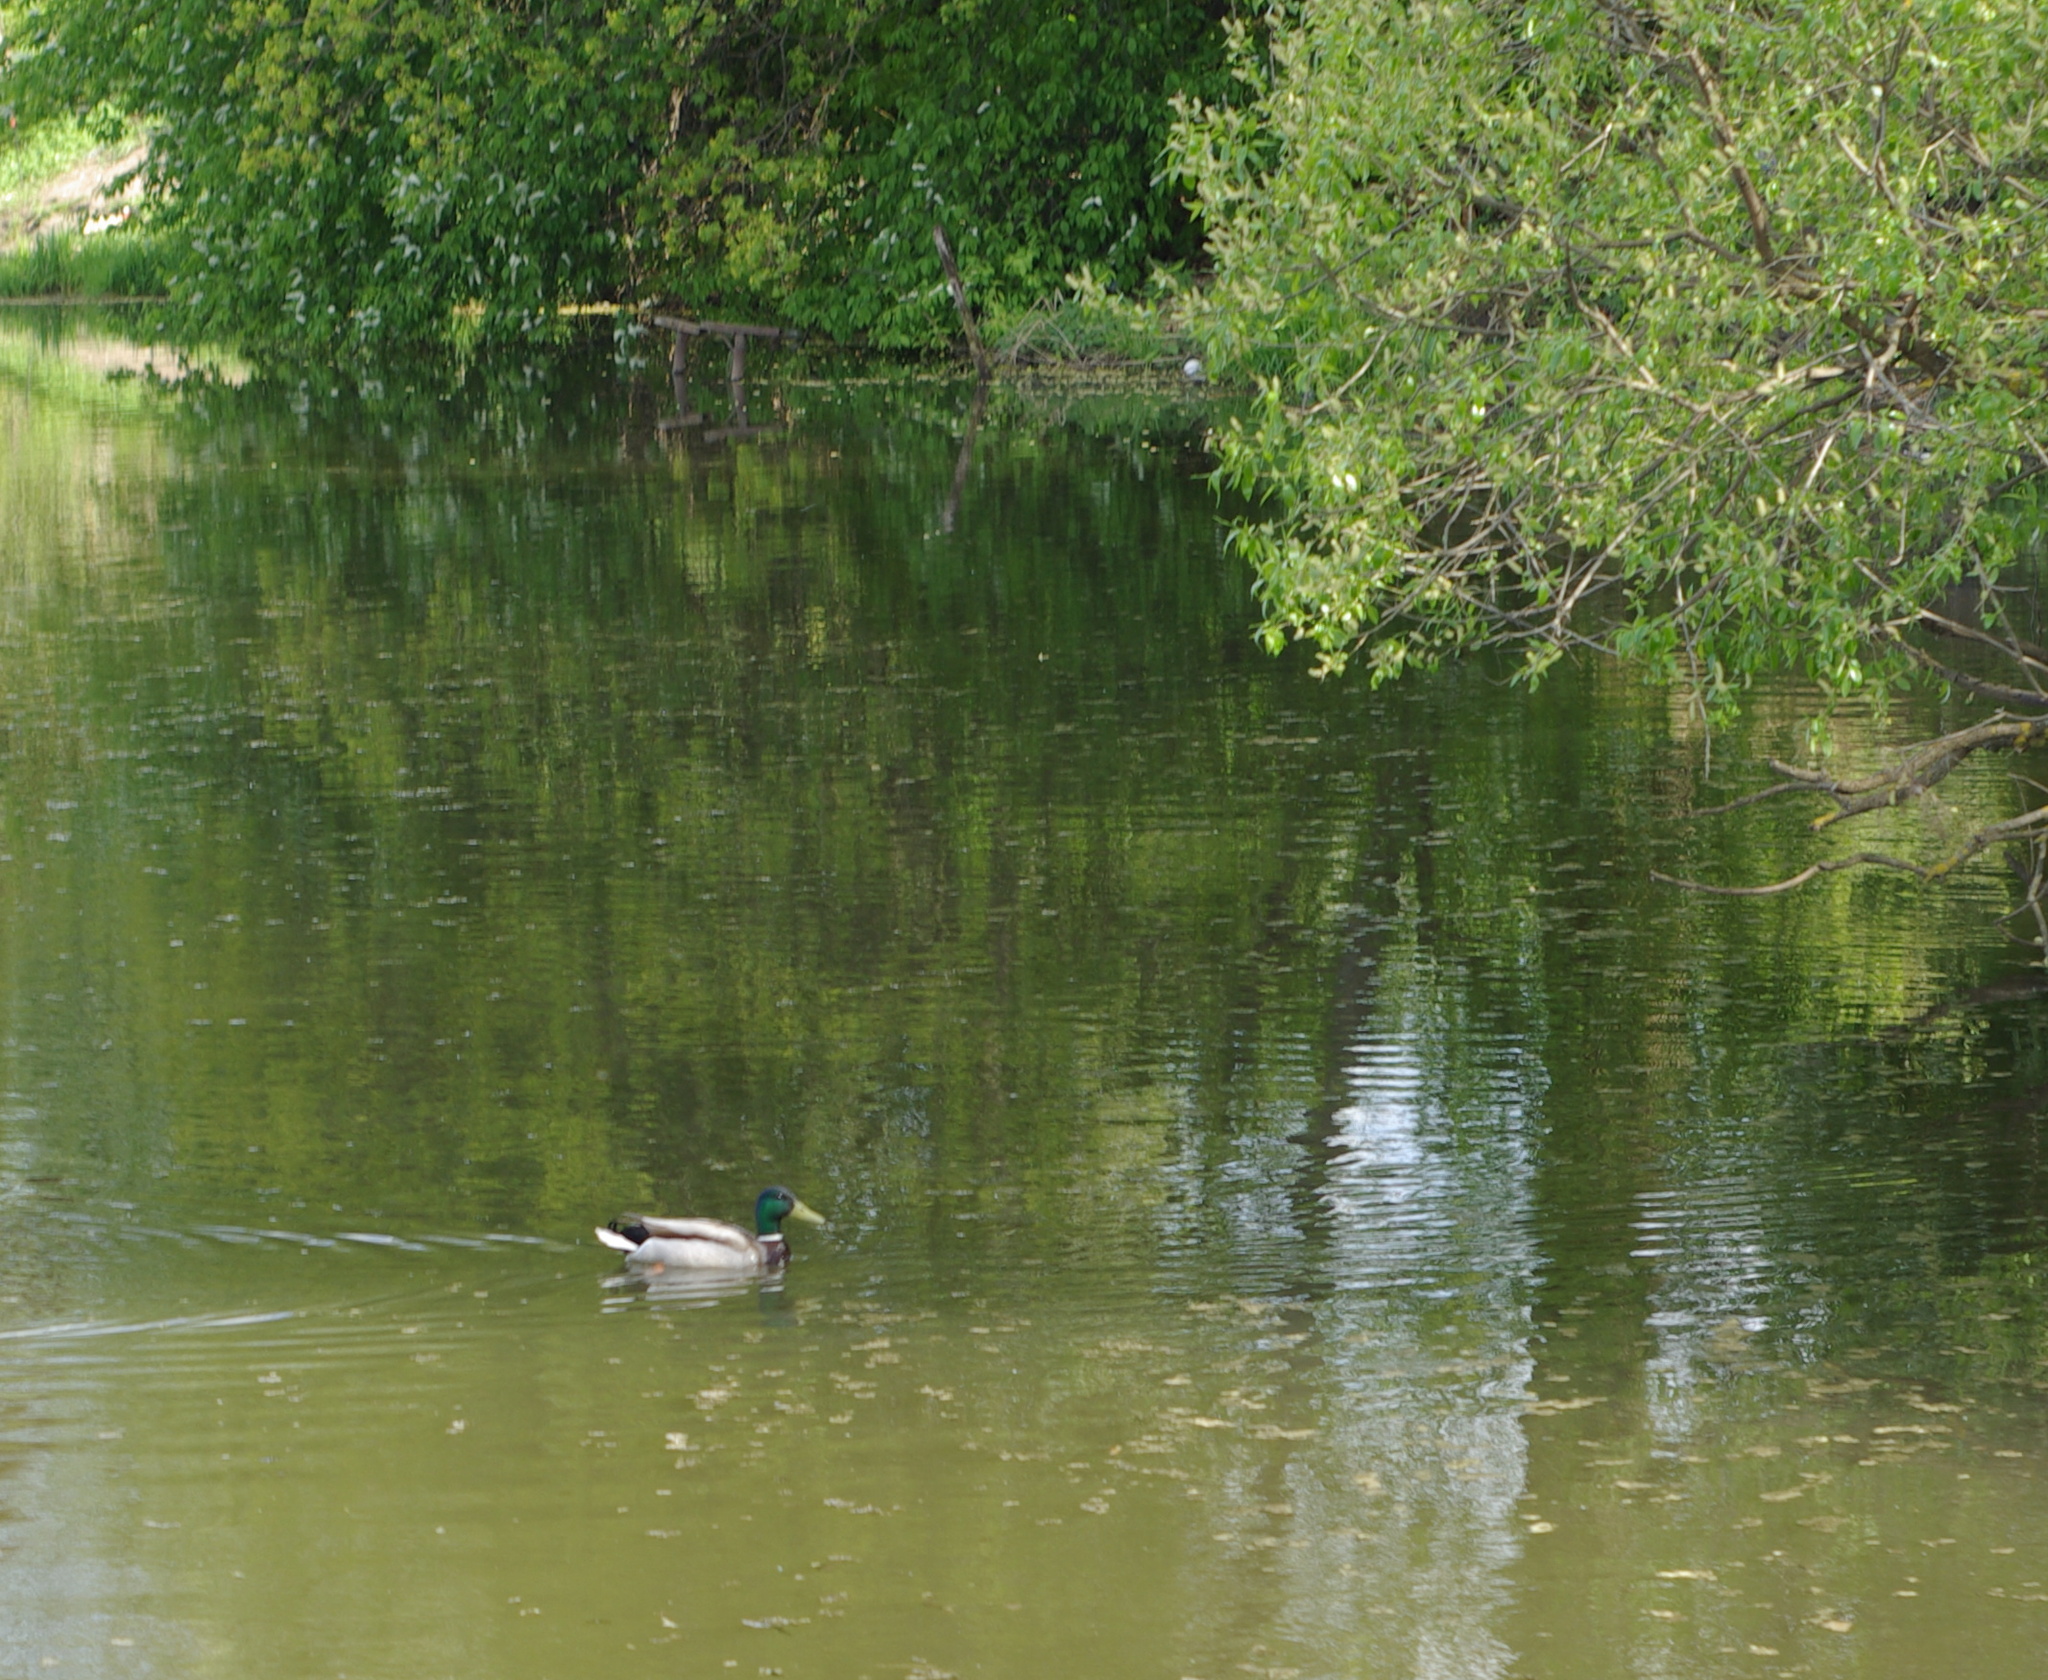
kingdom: Animalia
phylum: Chordata
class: Aves
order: Anseriformes
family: Anatidae
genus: Anas
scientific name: Anas platyrhynchos
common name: Mallard
